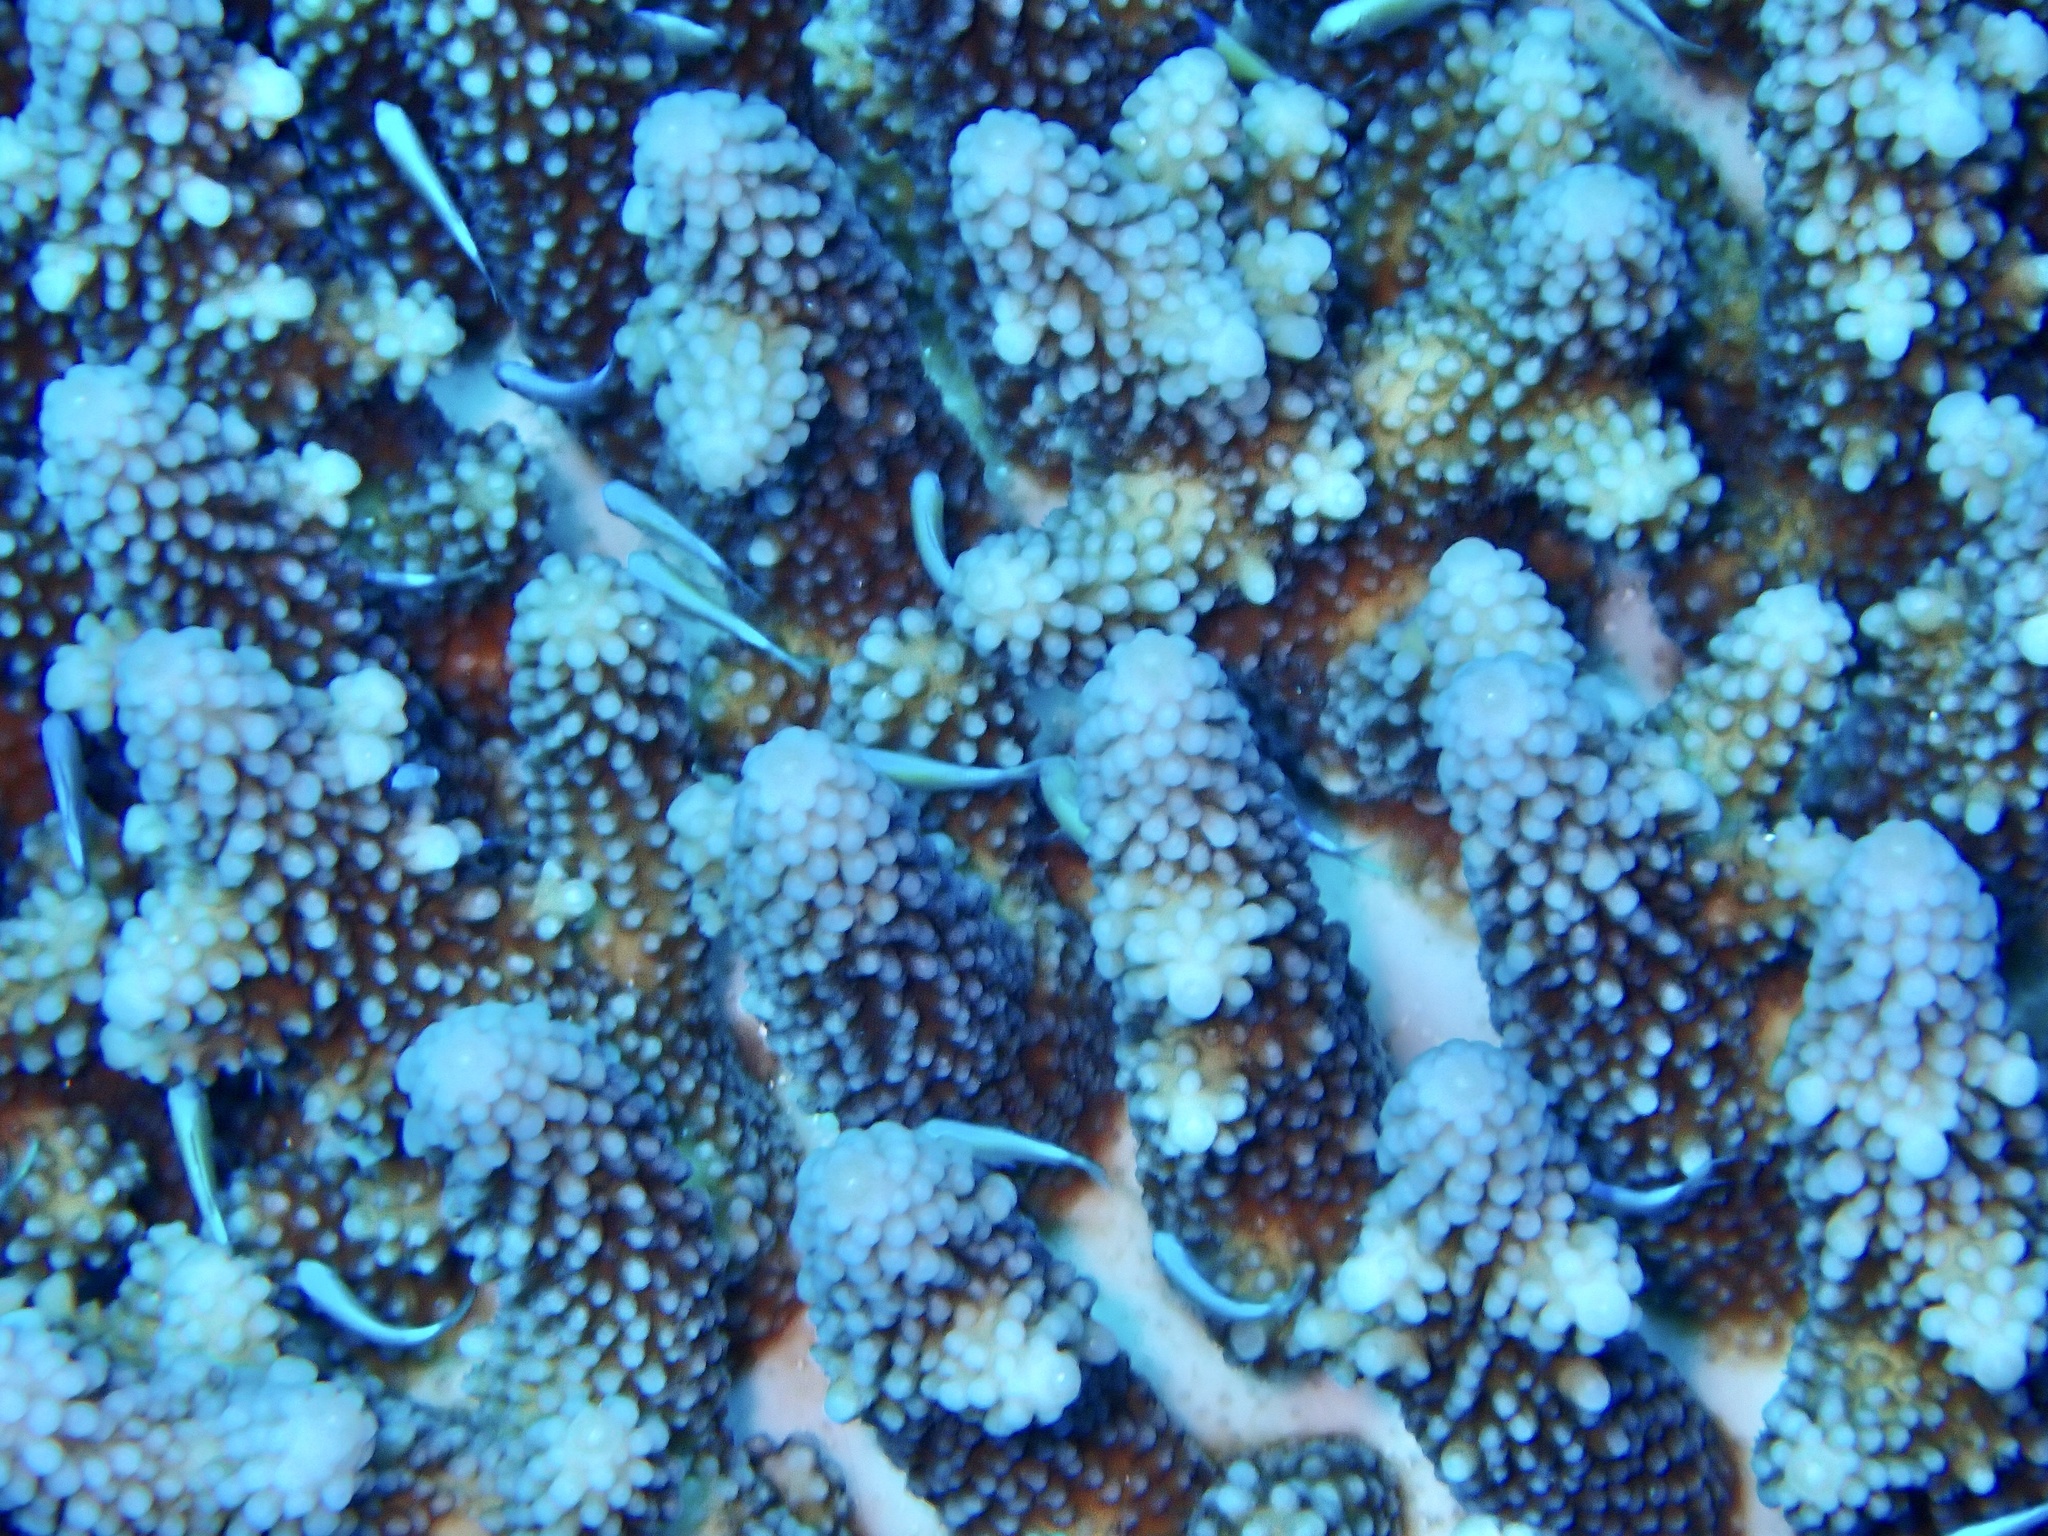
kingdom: Animalia
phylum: Cnidaria
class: Anthozoa
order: Scleractinia
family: Acroporidae
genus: Acropora
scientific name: Acropora gemmifera
